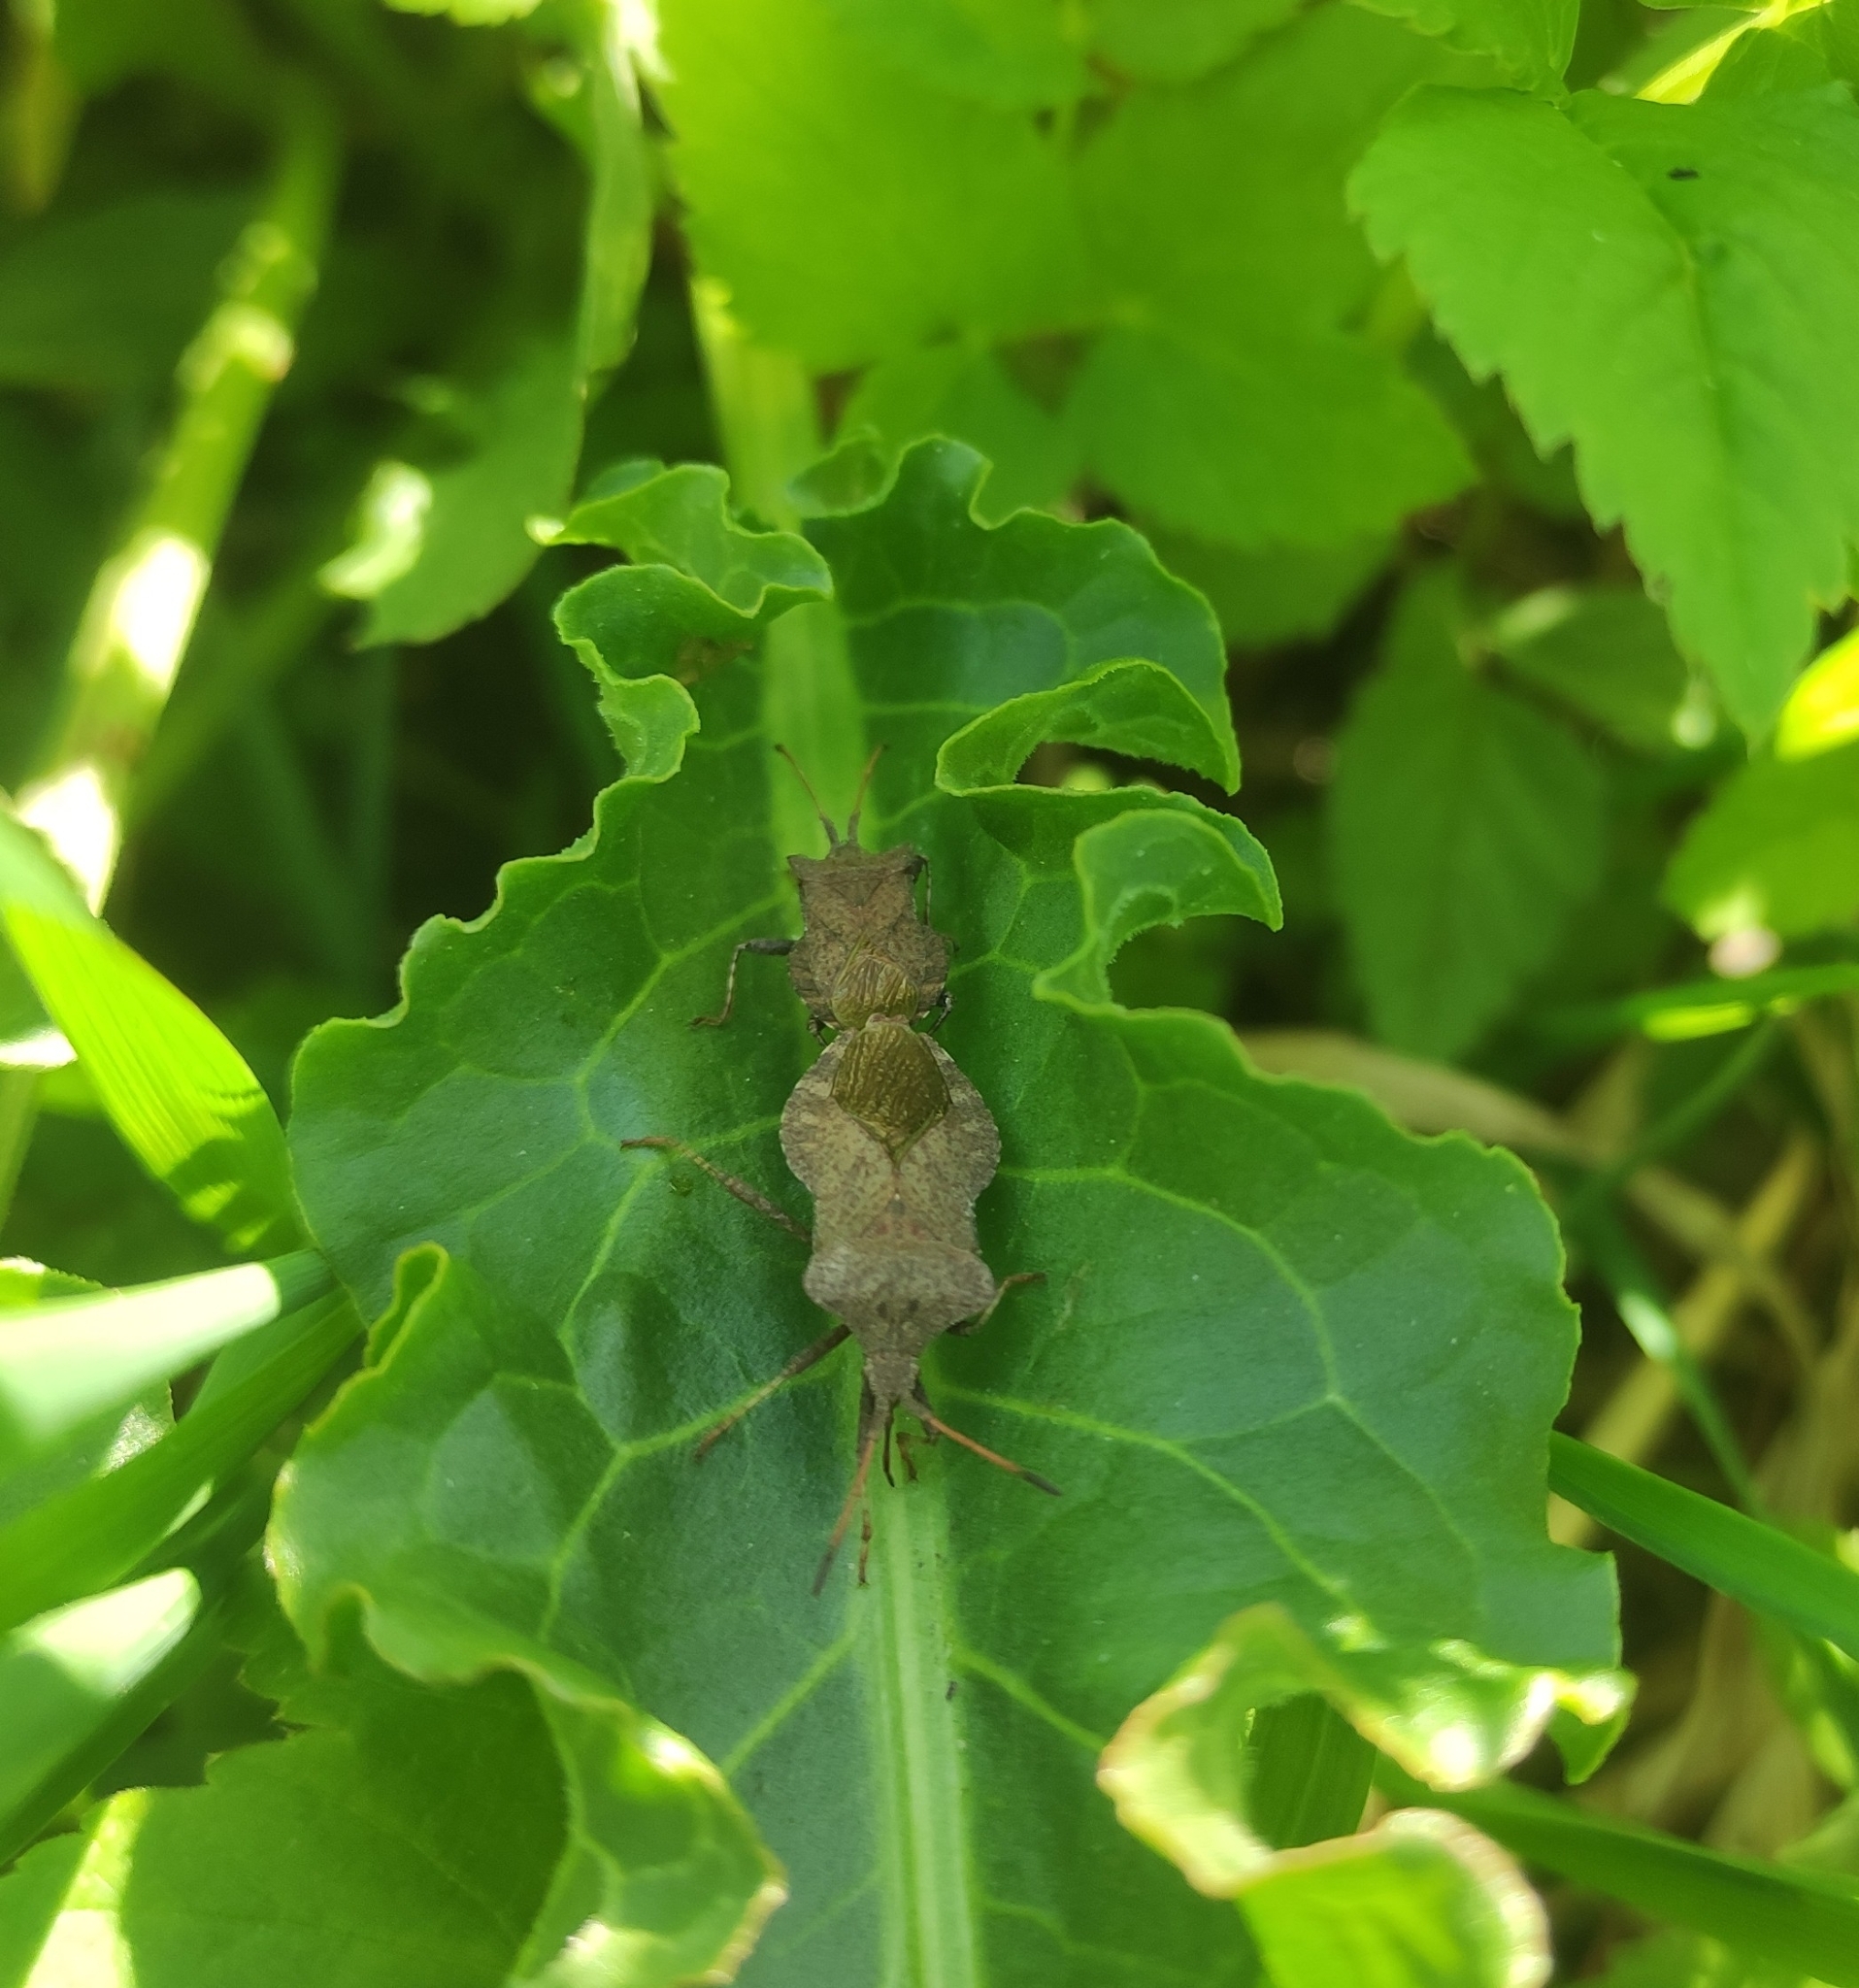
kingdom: Animalia
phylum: Arthropoda
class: Insecta
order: Hemiptera
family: Coreidae
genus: Coreus
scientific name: Coreus marginatus
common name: Dock bug
